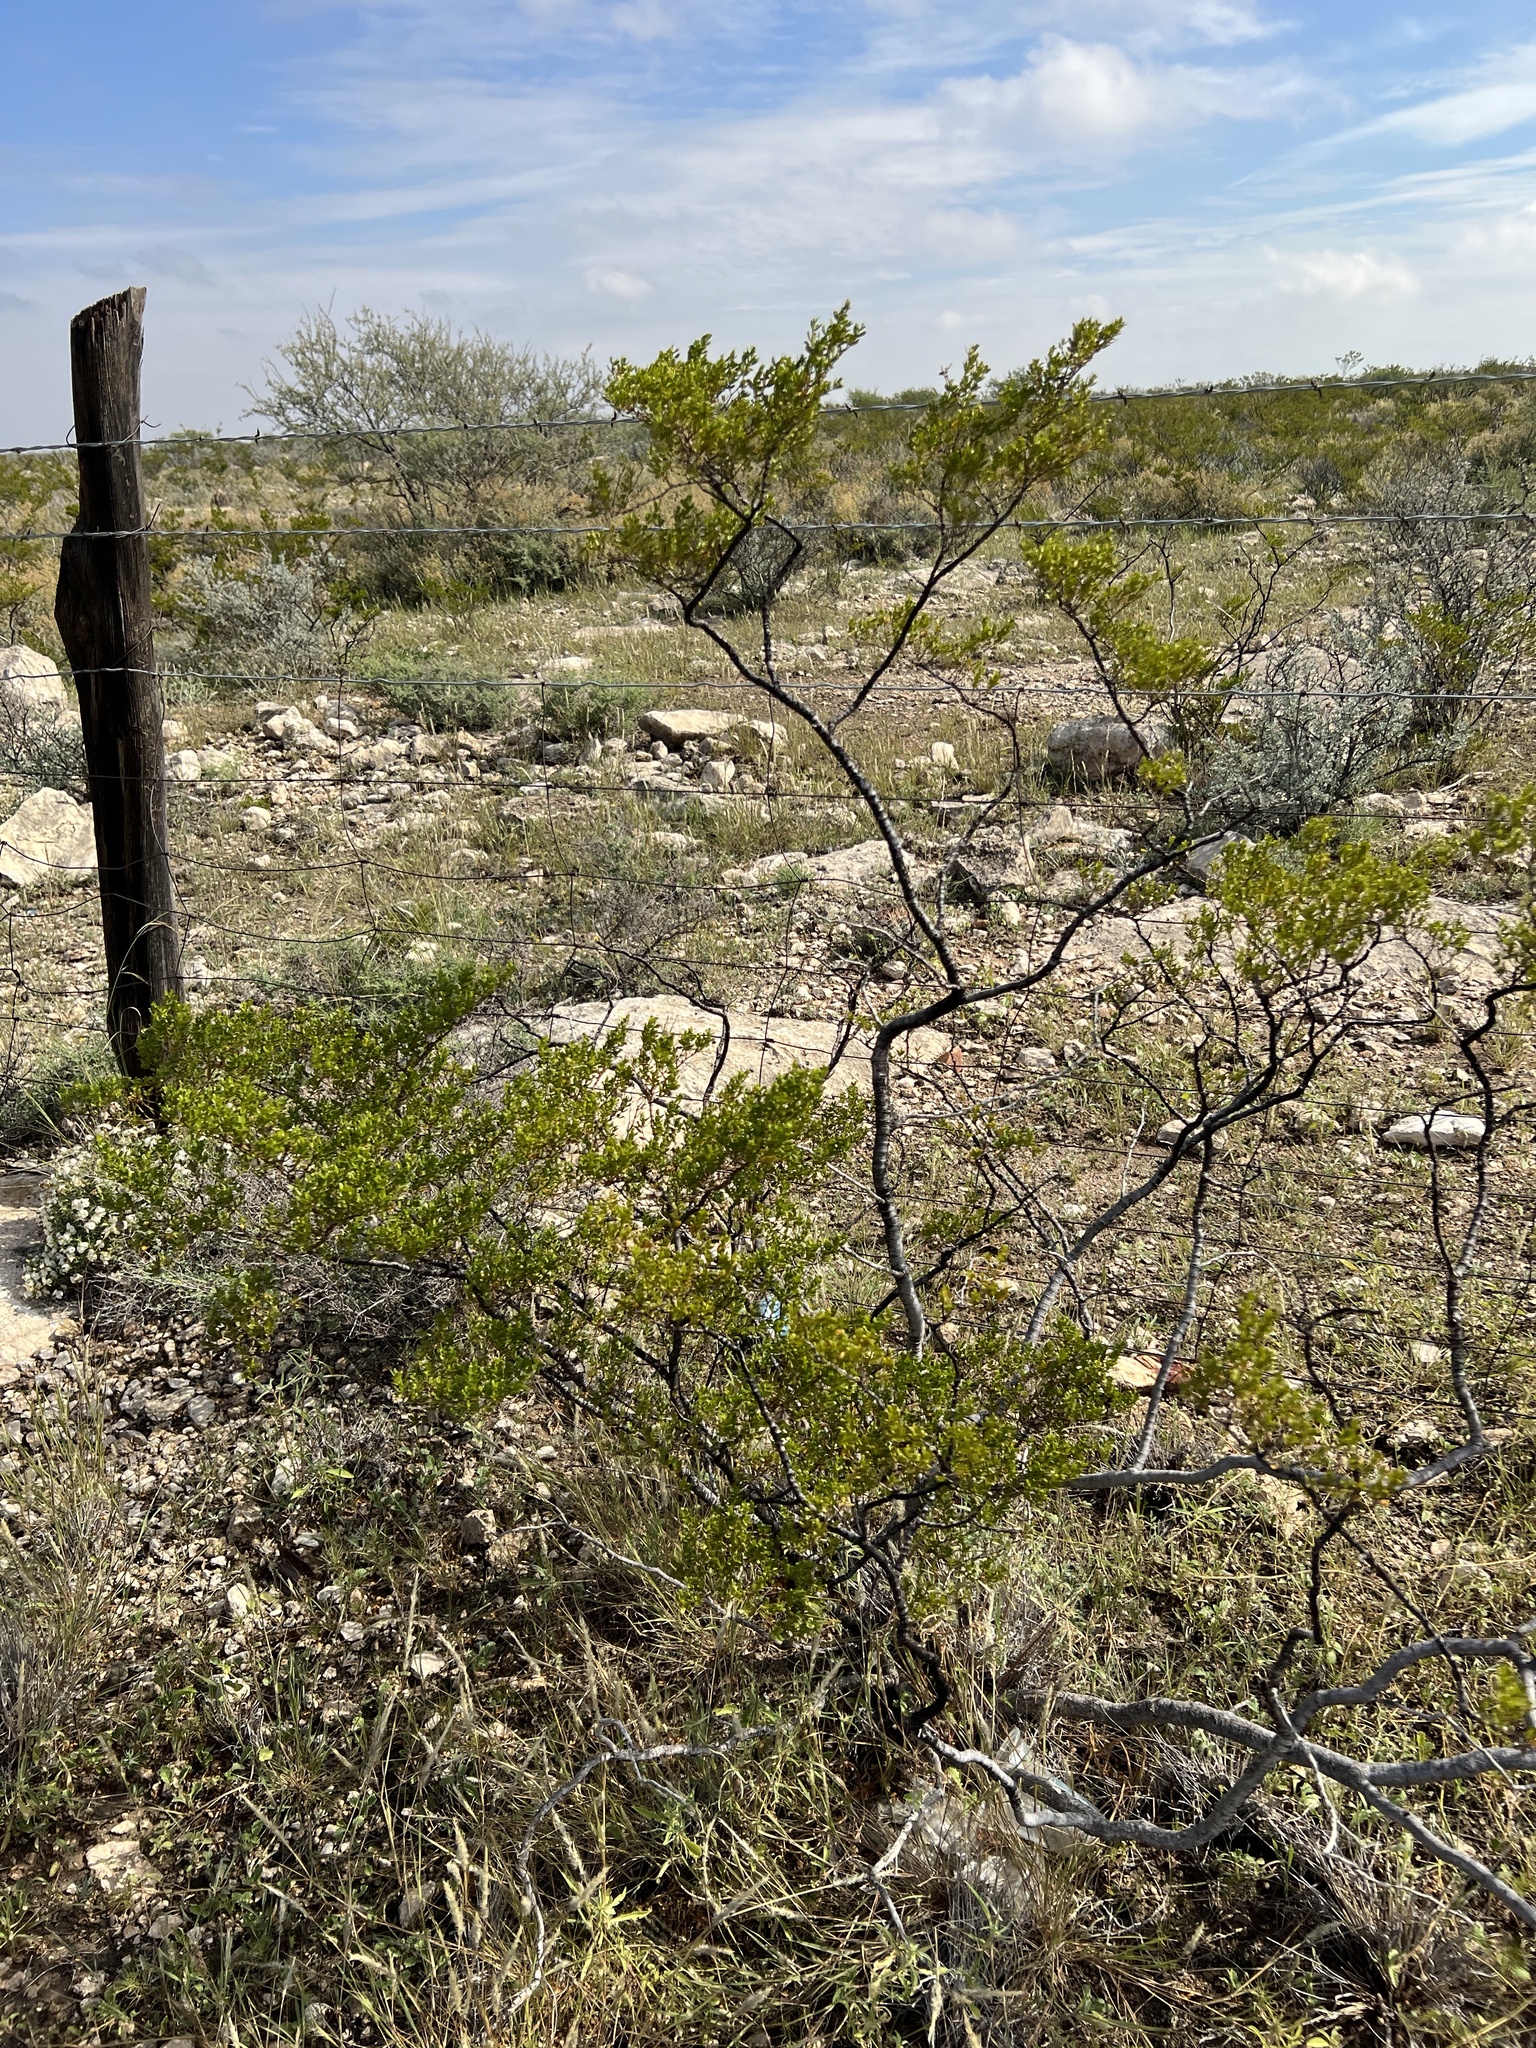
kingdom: Plantae
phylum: Tracheophyta
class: Magnoliopsida
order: Zygophyllales
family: Zygophyllaceae
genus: Larrea
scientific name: Larrea tridentata
